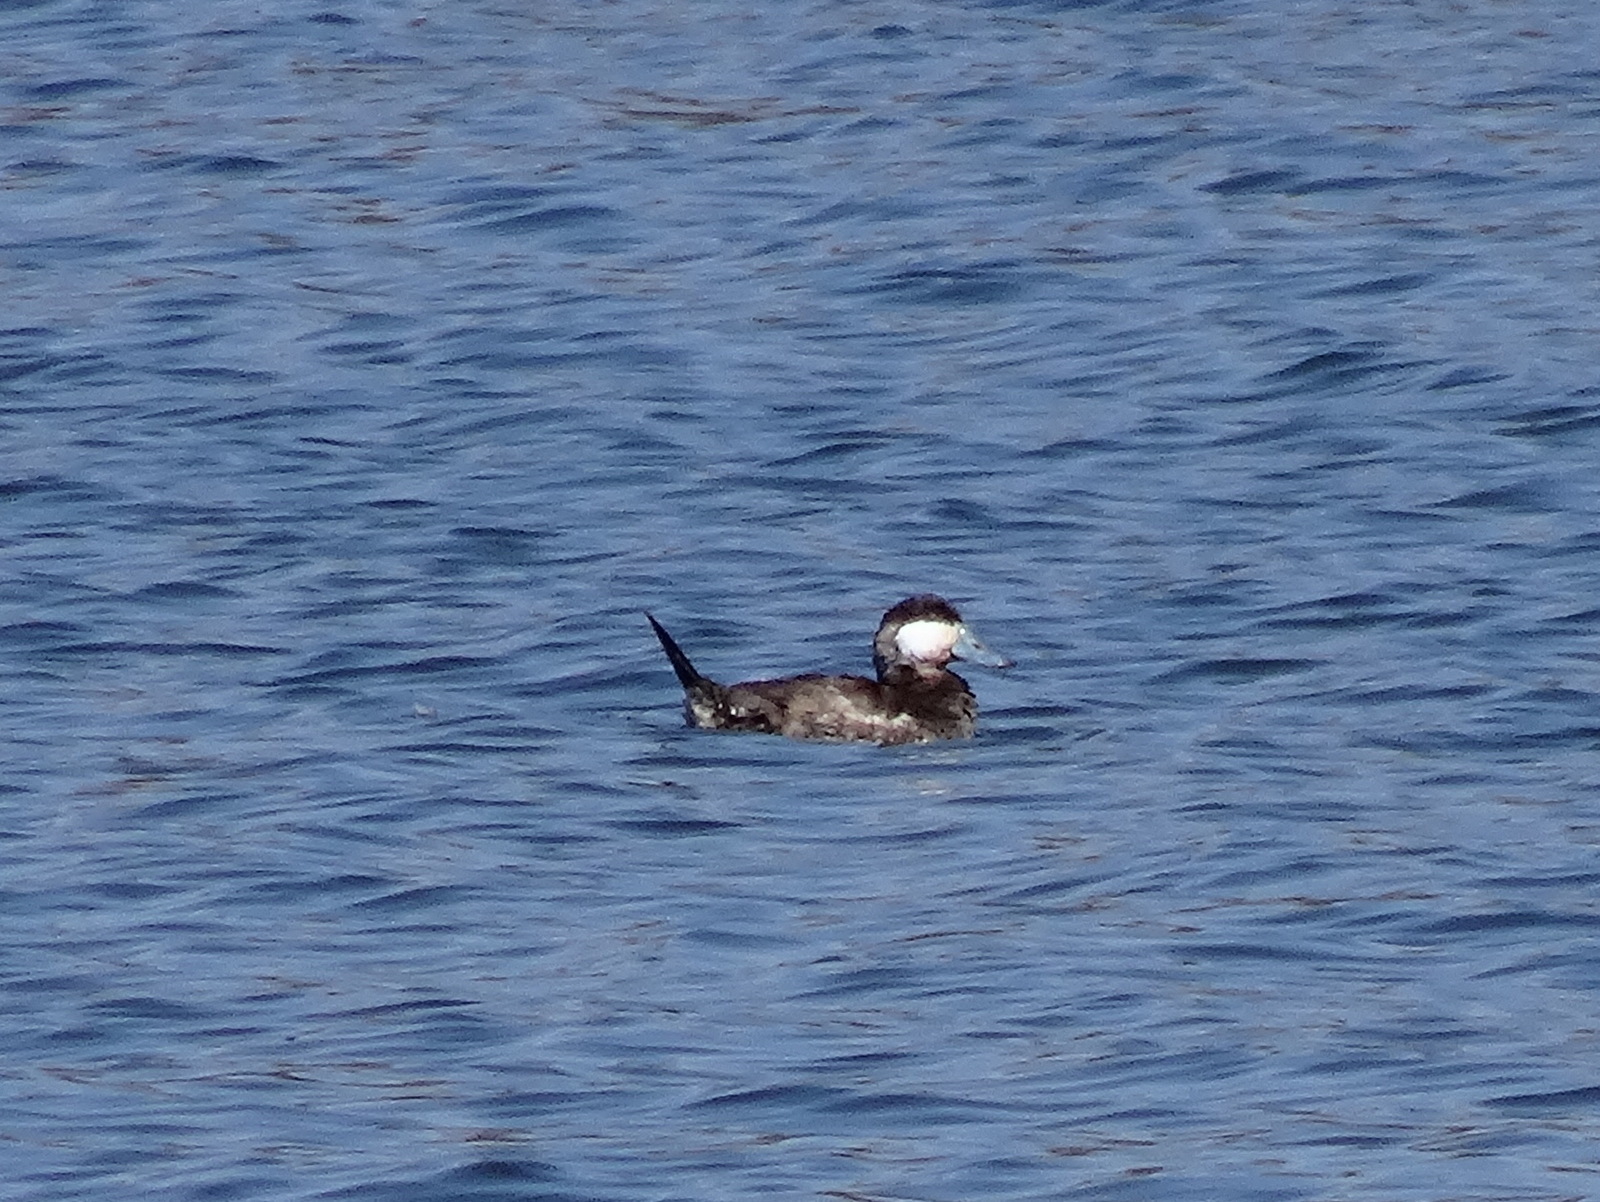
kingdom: Animalia
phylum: Chordata
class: Aves
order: Anseriformes
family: Anatidae
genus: Oxyura
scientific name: Oxyura jamaicensis
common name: Ruddy duck
